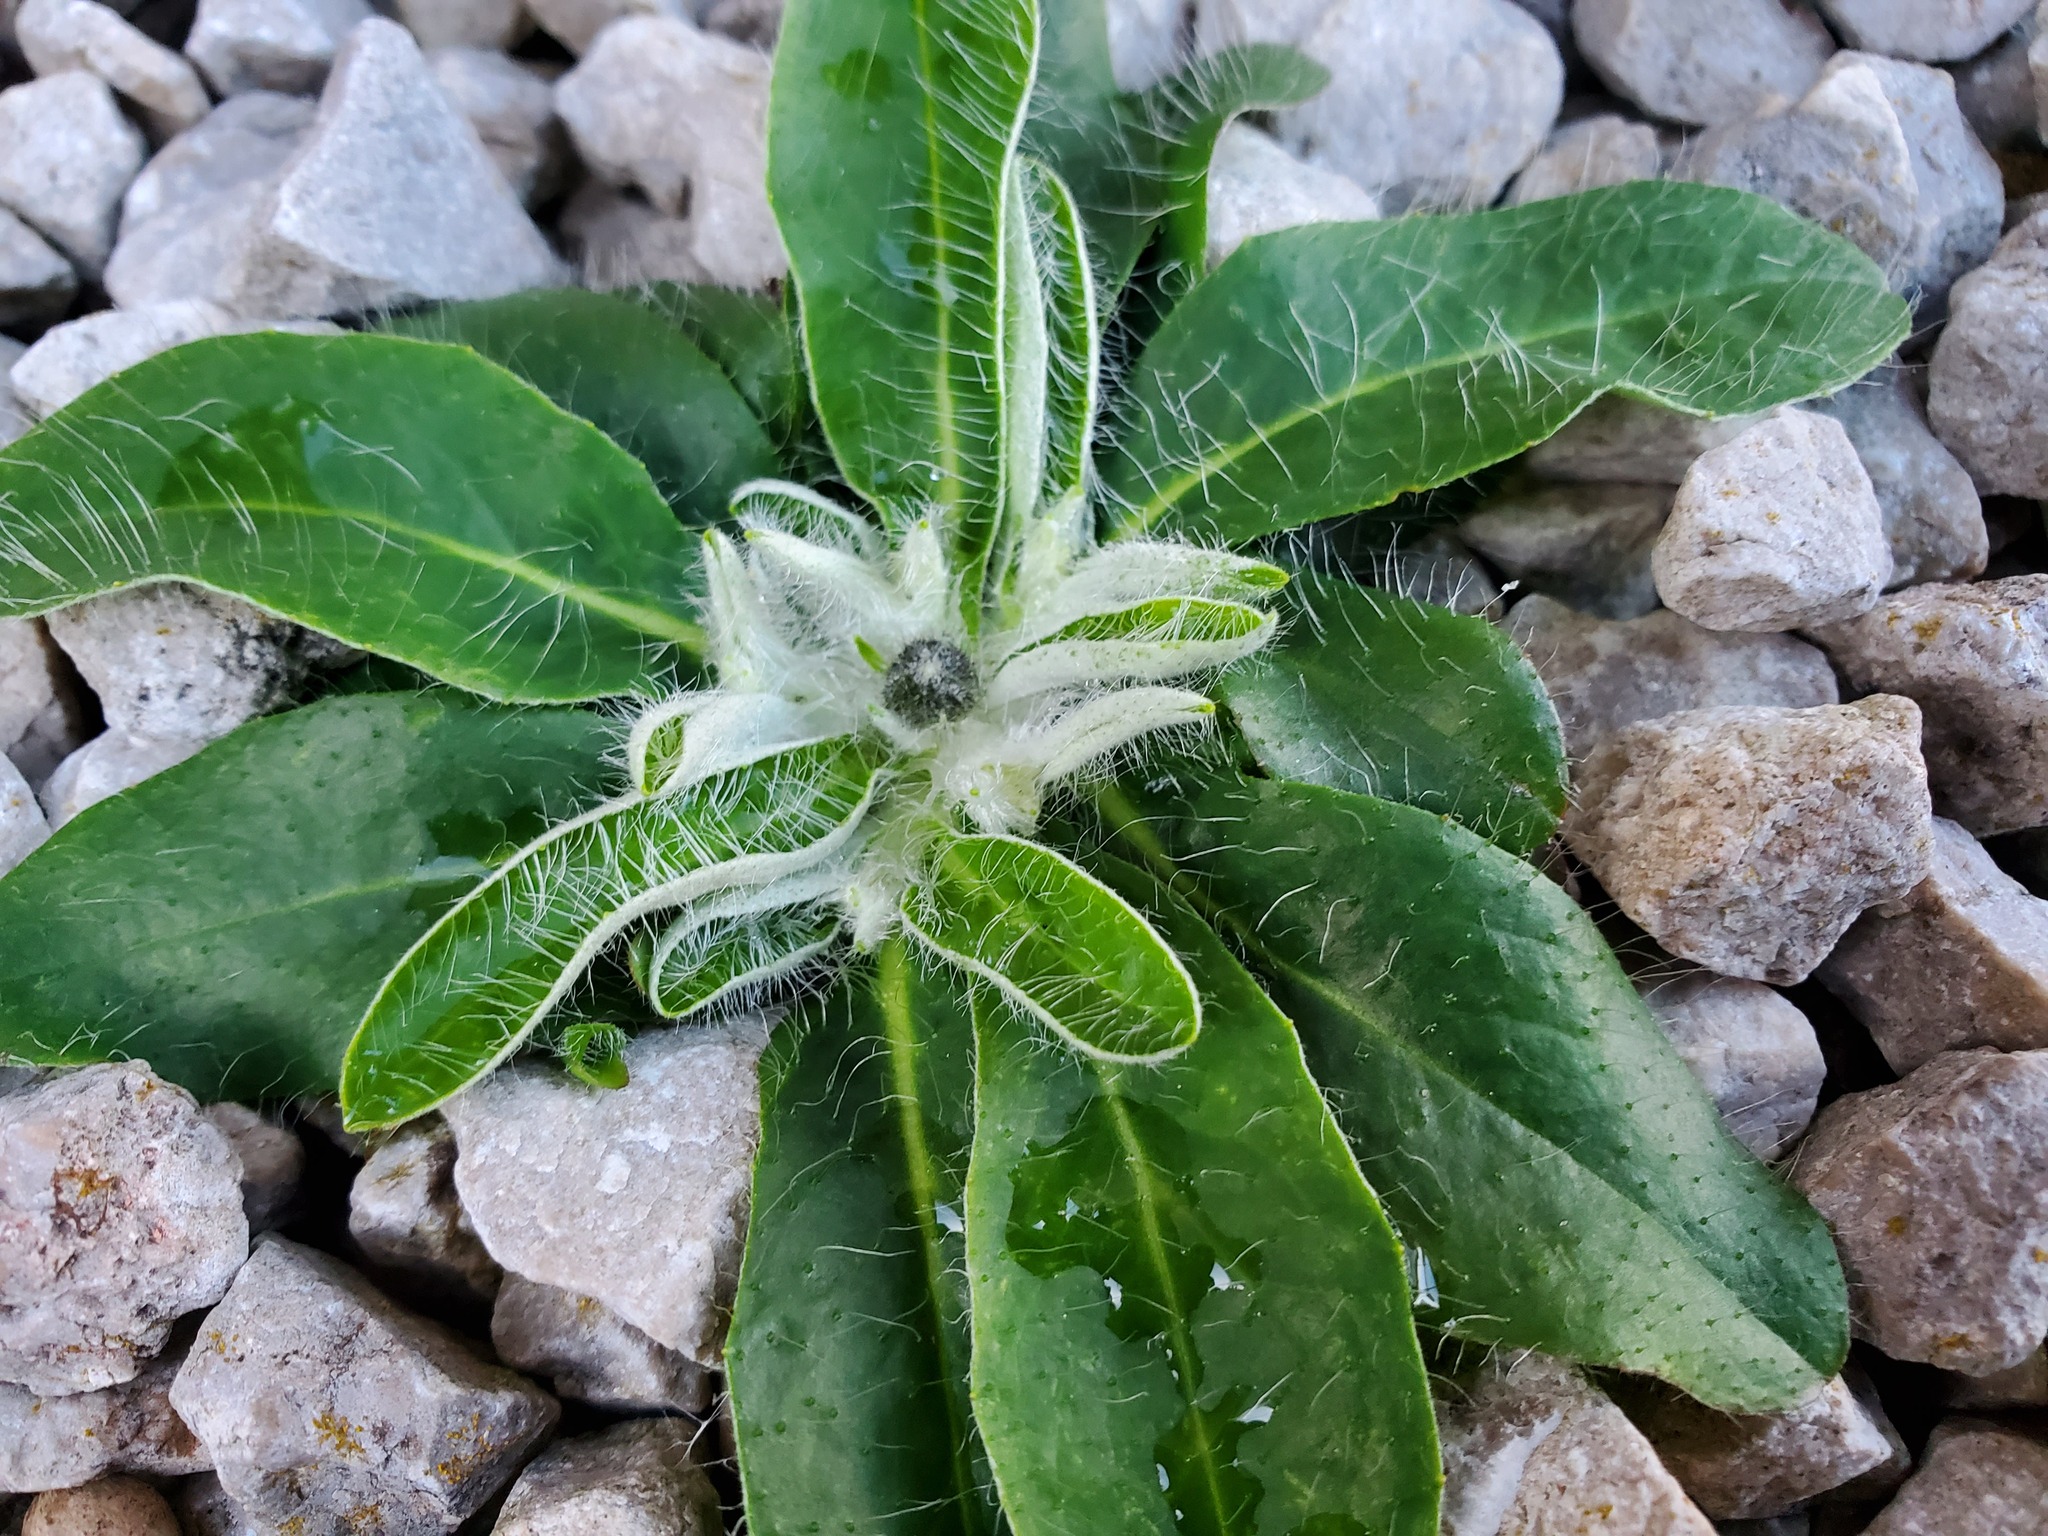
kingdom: Plantae
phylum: Tracheophyta
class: Magnoliopsida
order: Asterales
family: Asteraceae
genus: Pilosella
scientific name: Pilosella officinarum
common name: Mouse-ear hawkweed
